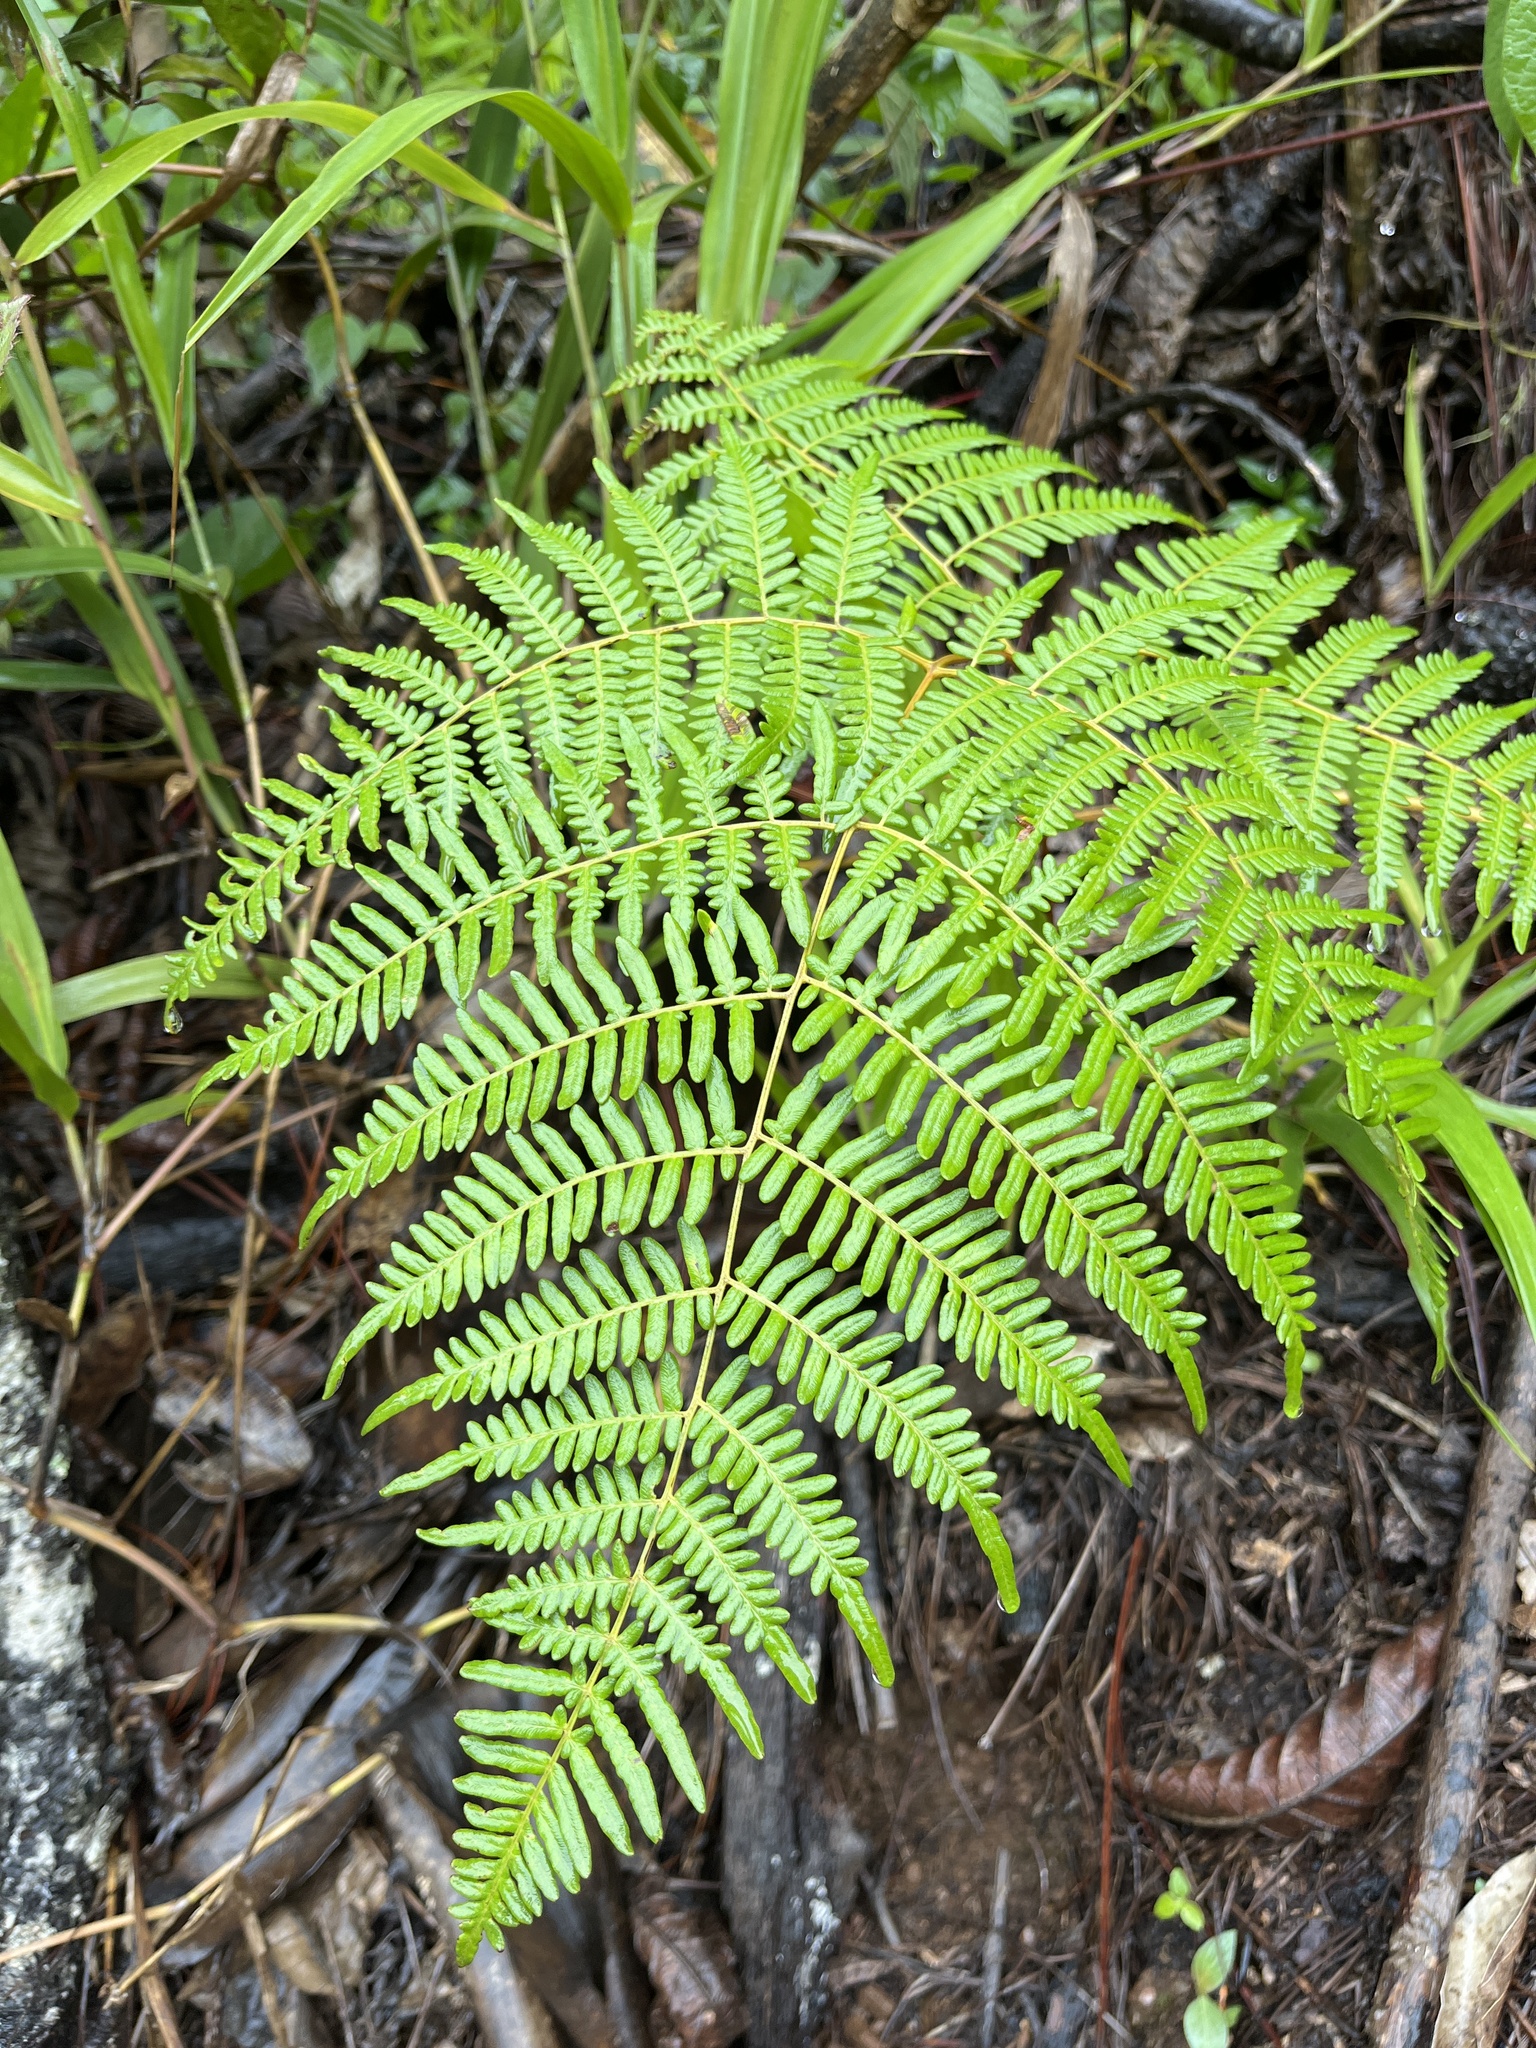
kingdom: Plantae
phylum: Tracheophyta
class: Polypodiopsida
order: Polypodiales
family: Dennstaedtiaceae
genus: Pteridium
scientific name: Pteridium aquilinum
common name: Bracken
